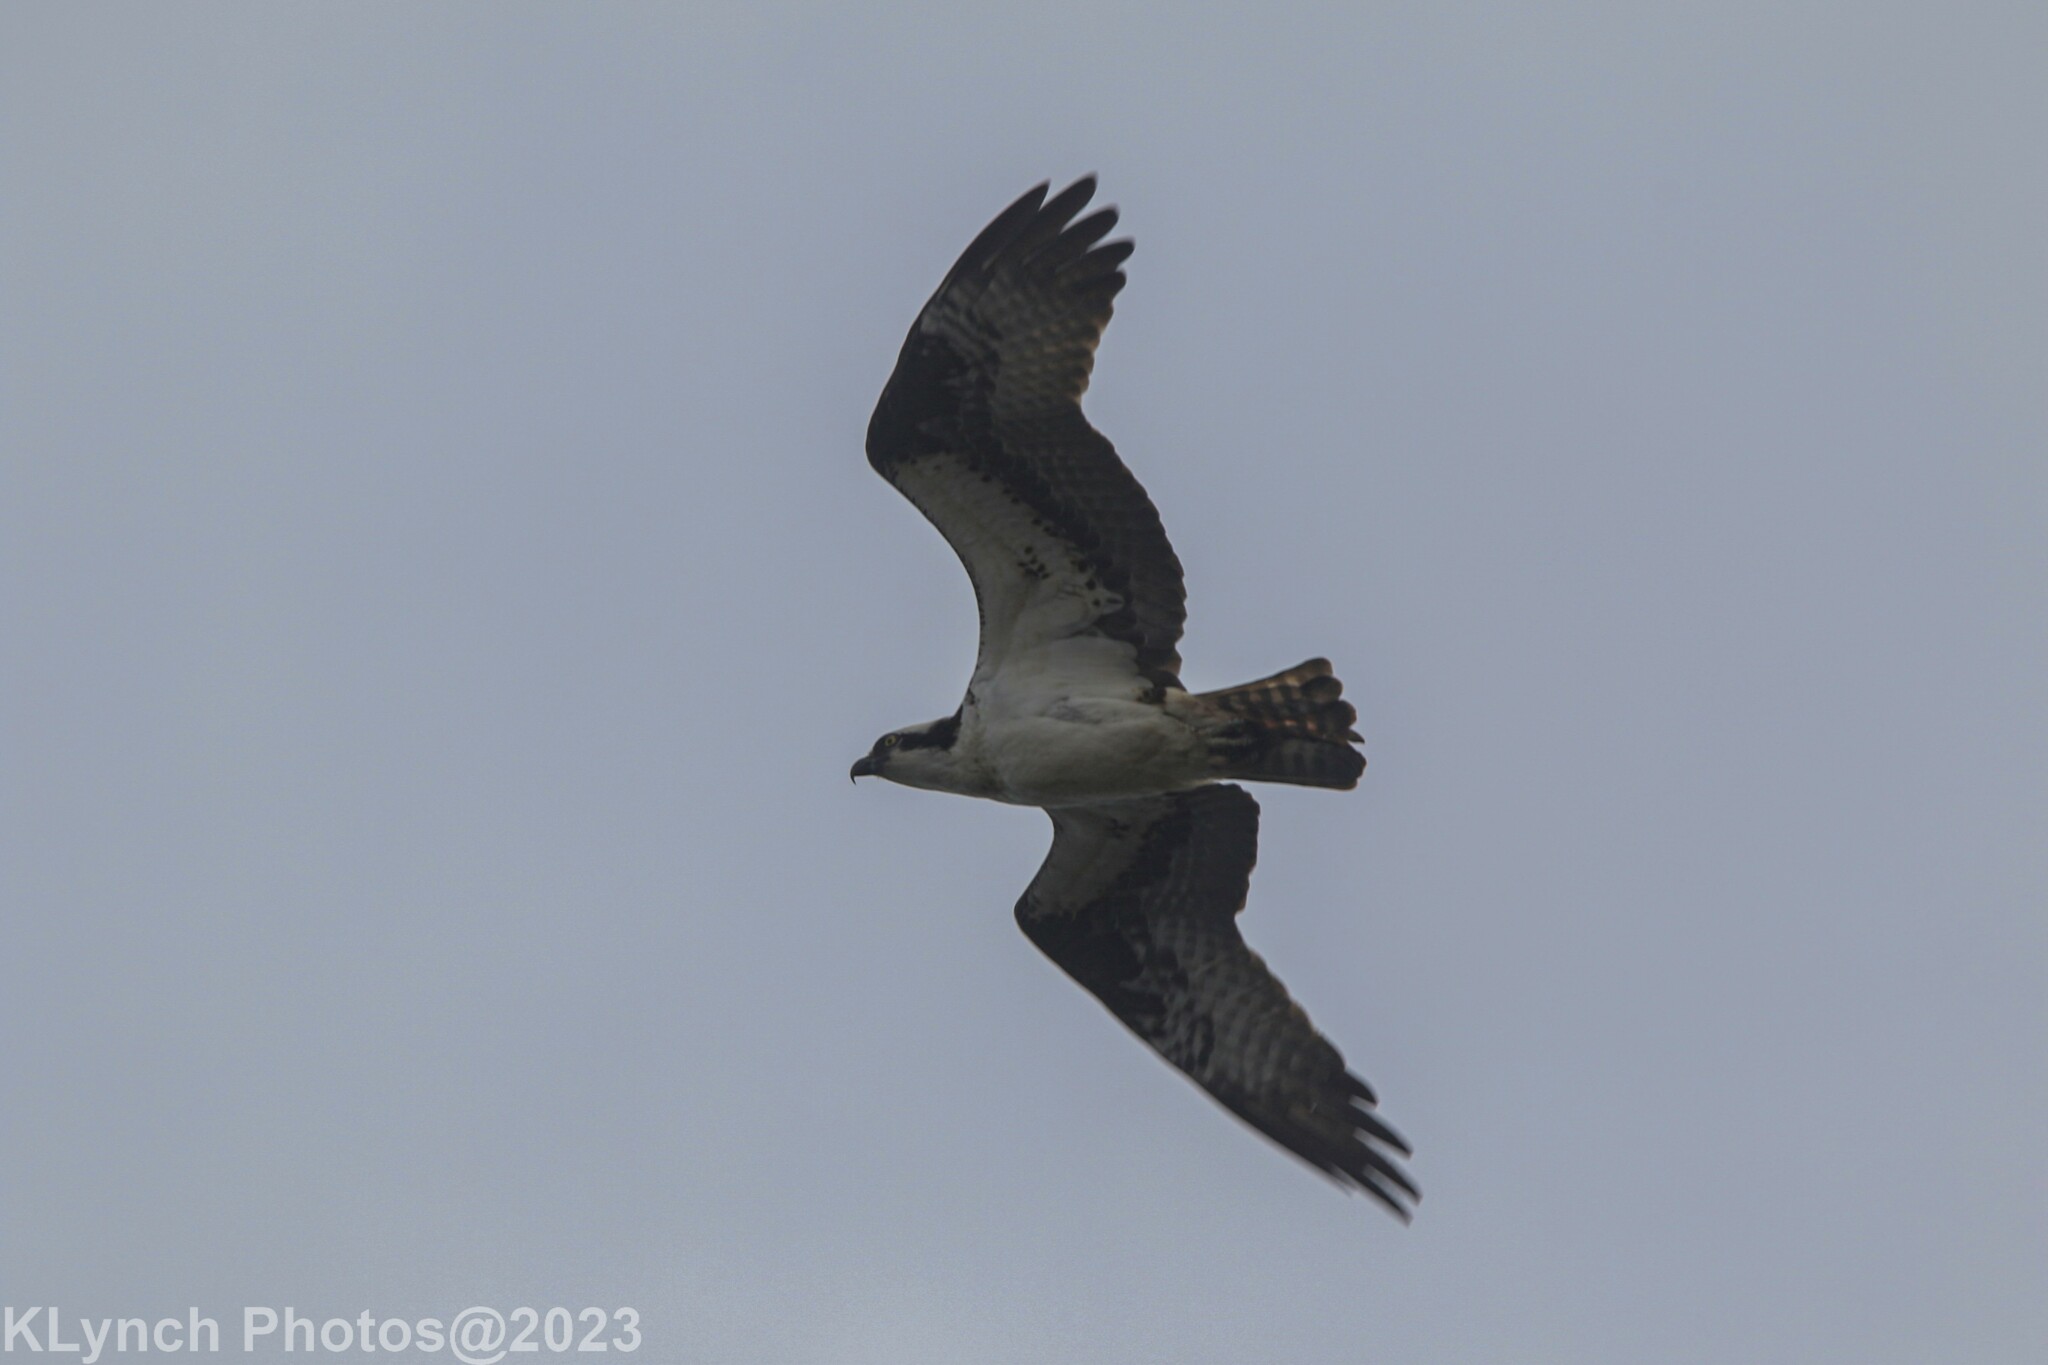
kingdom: Animalia
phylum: Chordata
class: Aves
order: Accipitriformes
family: Pandionidae
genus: Pandion
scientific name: Pandion haliaetus
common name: Osprey
